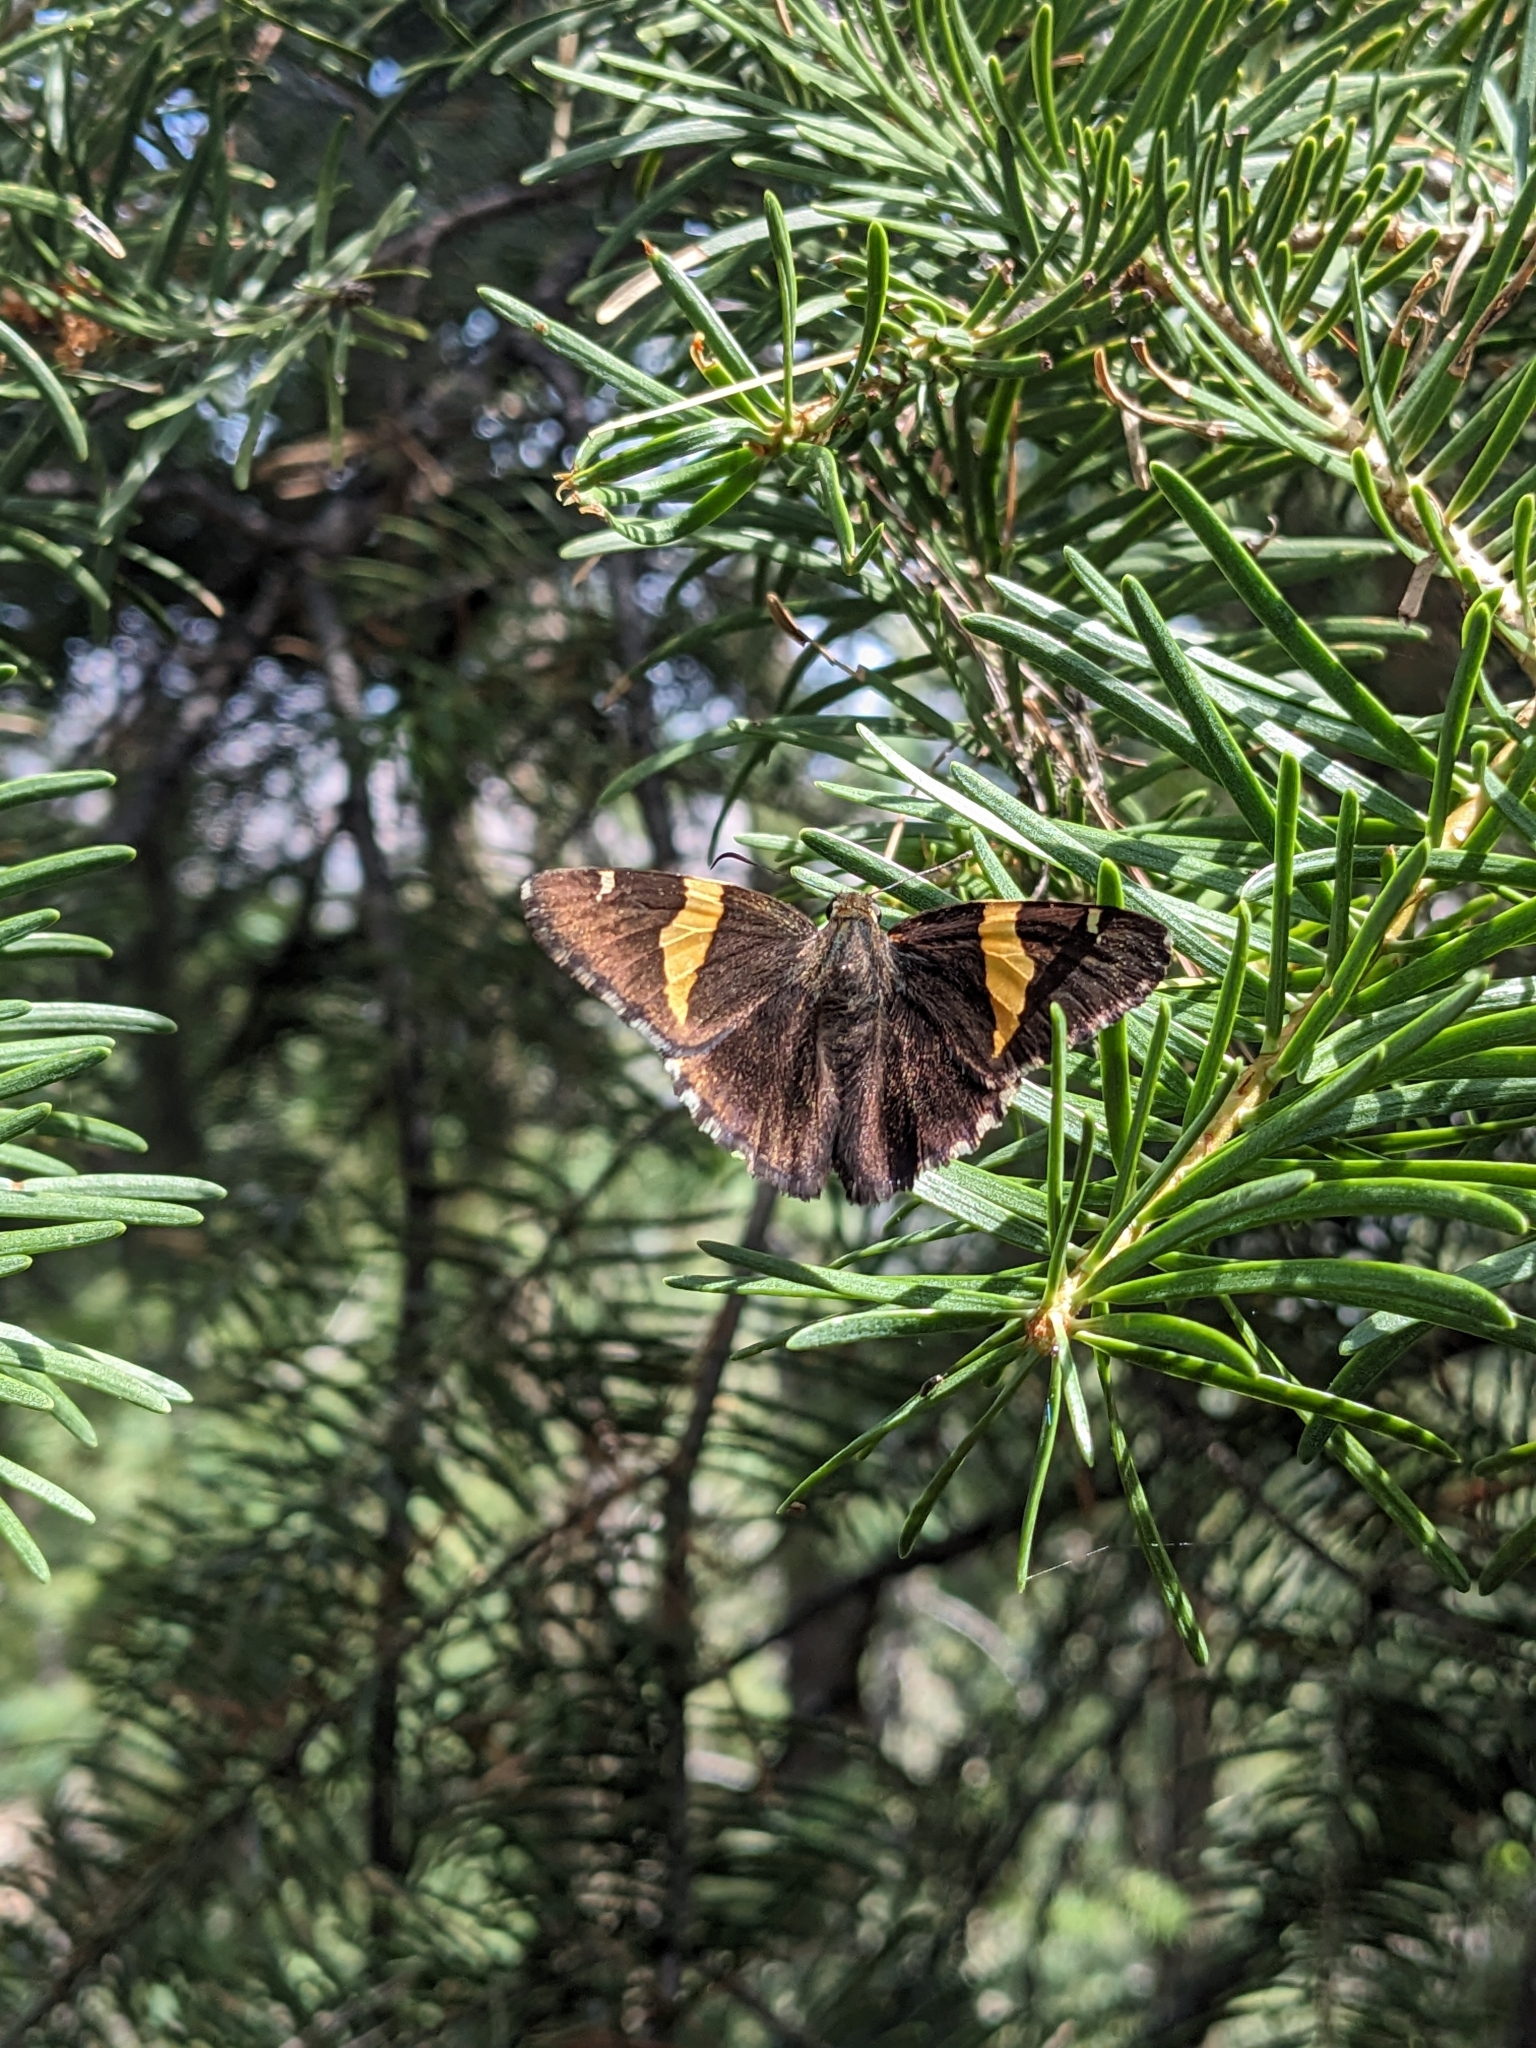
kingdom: Animalia
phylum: Arthropoda
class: Arachnida
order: Scorpiones
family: Bothriuridae
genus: Telegonus
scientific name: Telegonus cellus
